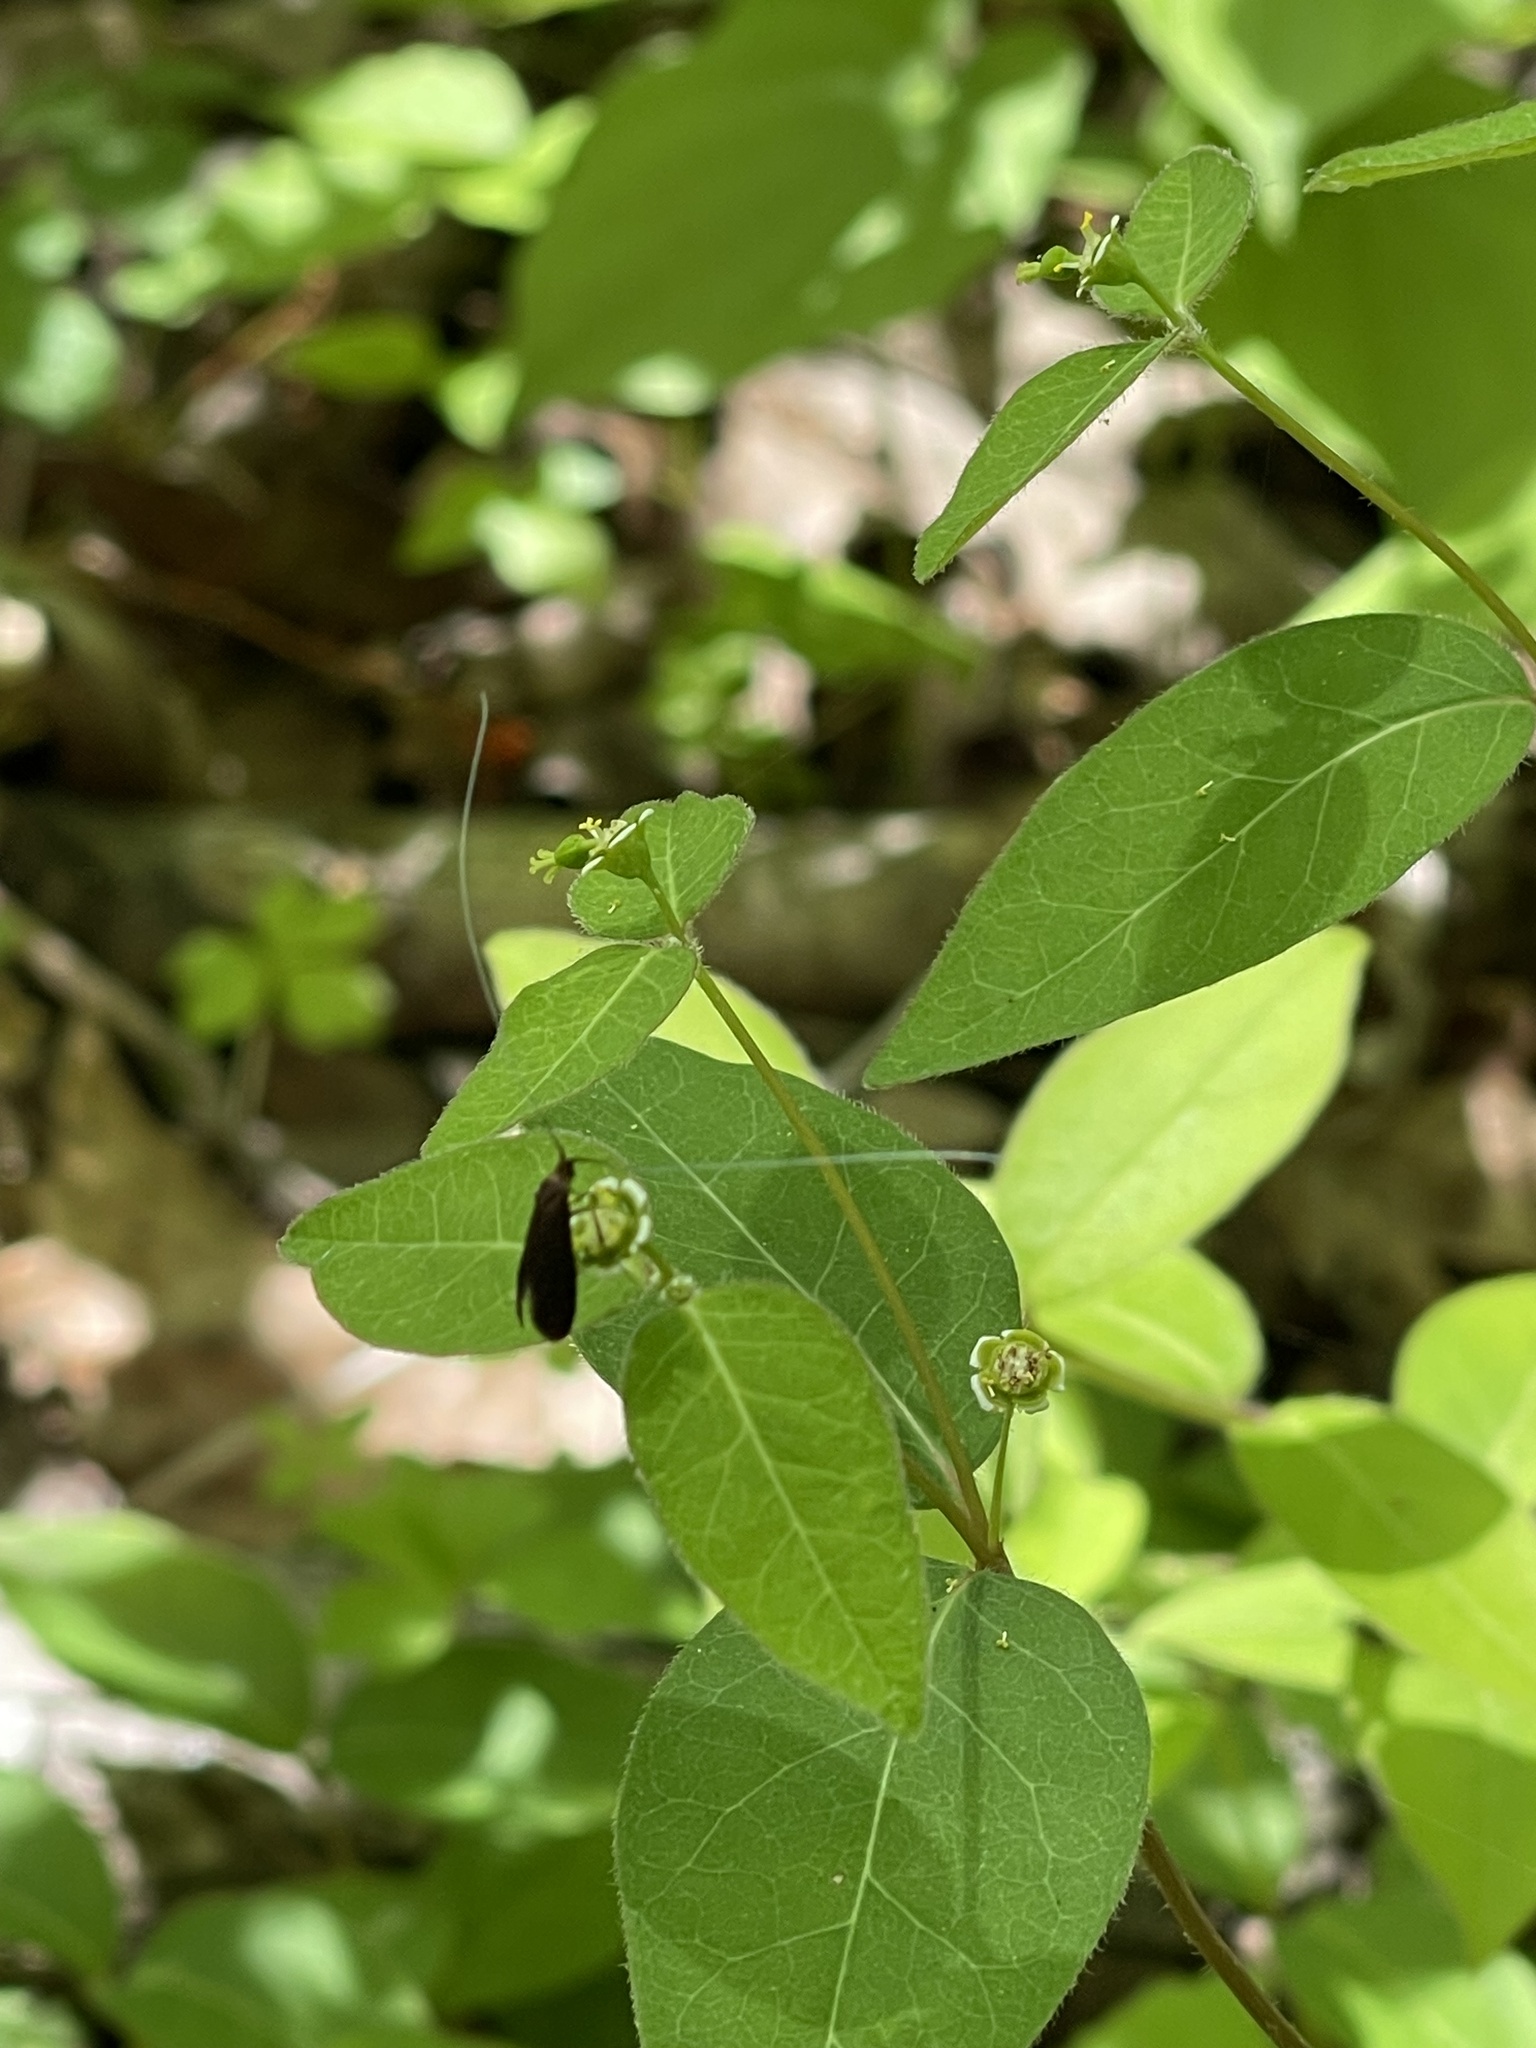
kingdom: Plantae
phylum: Tracheophyta
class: Magnoliopsida
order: Malpighiales
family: Euphorbiaceae
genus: Euphorbia
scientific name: Euphorbia mercurialina
